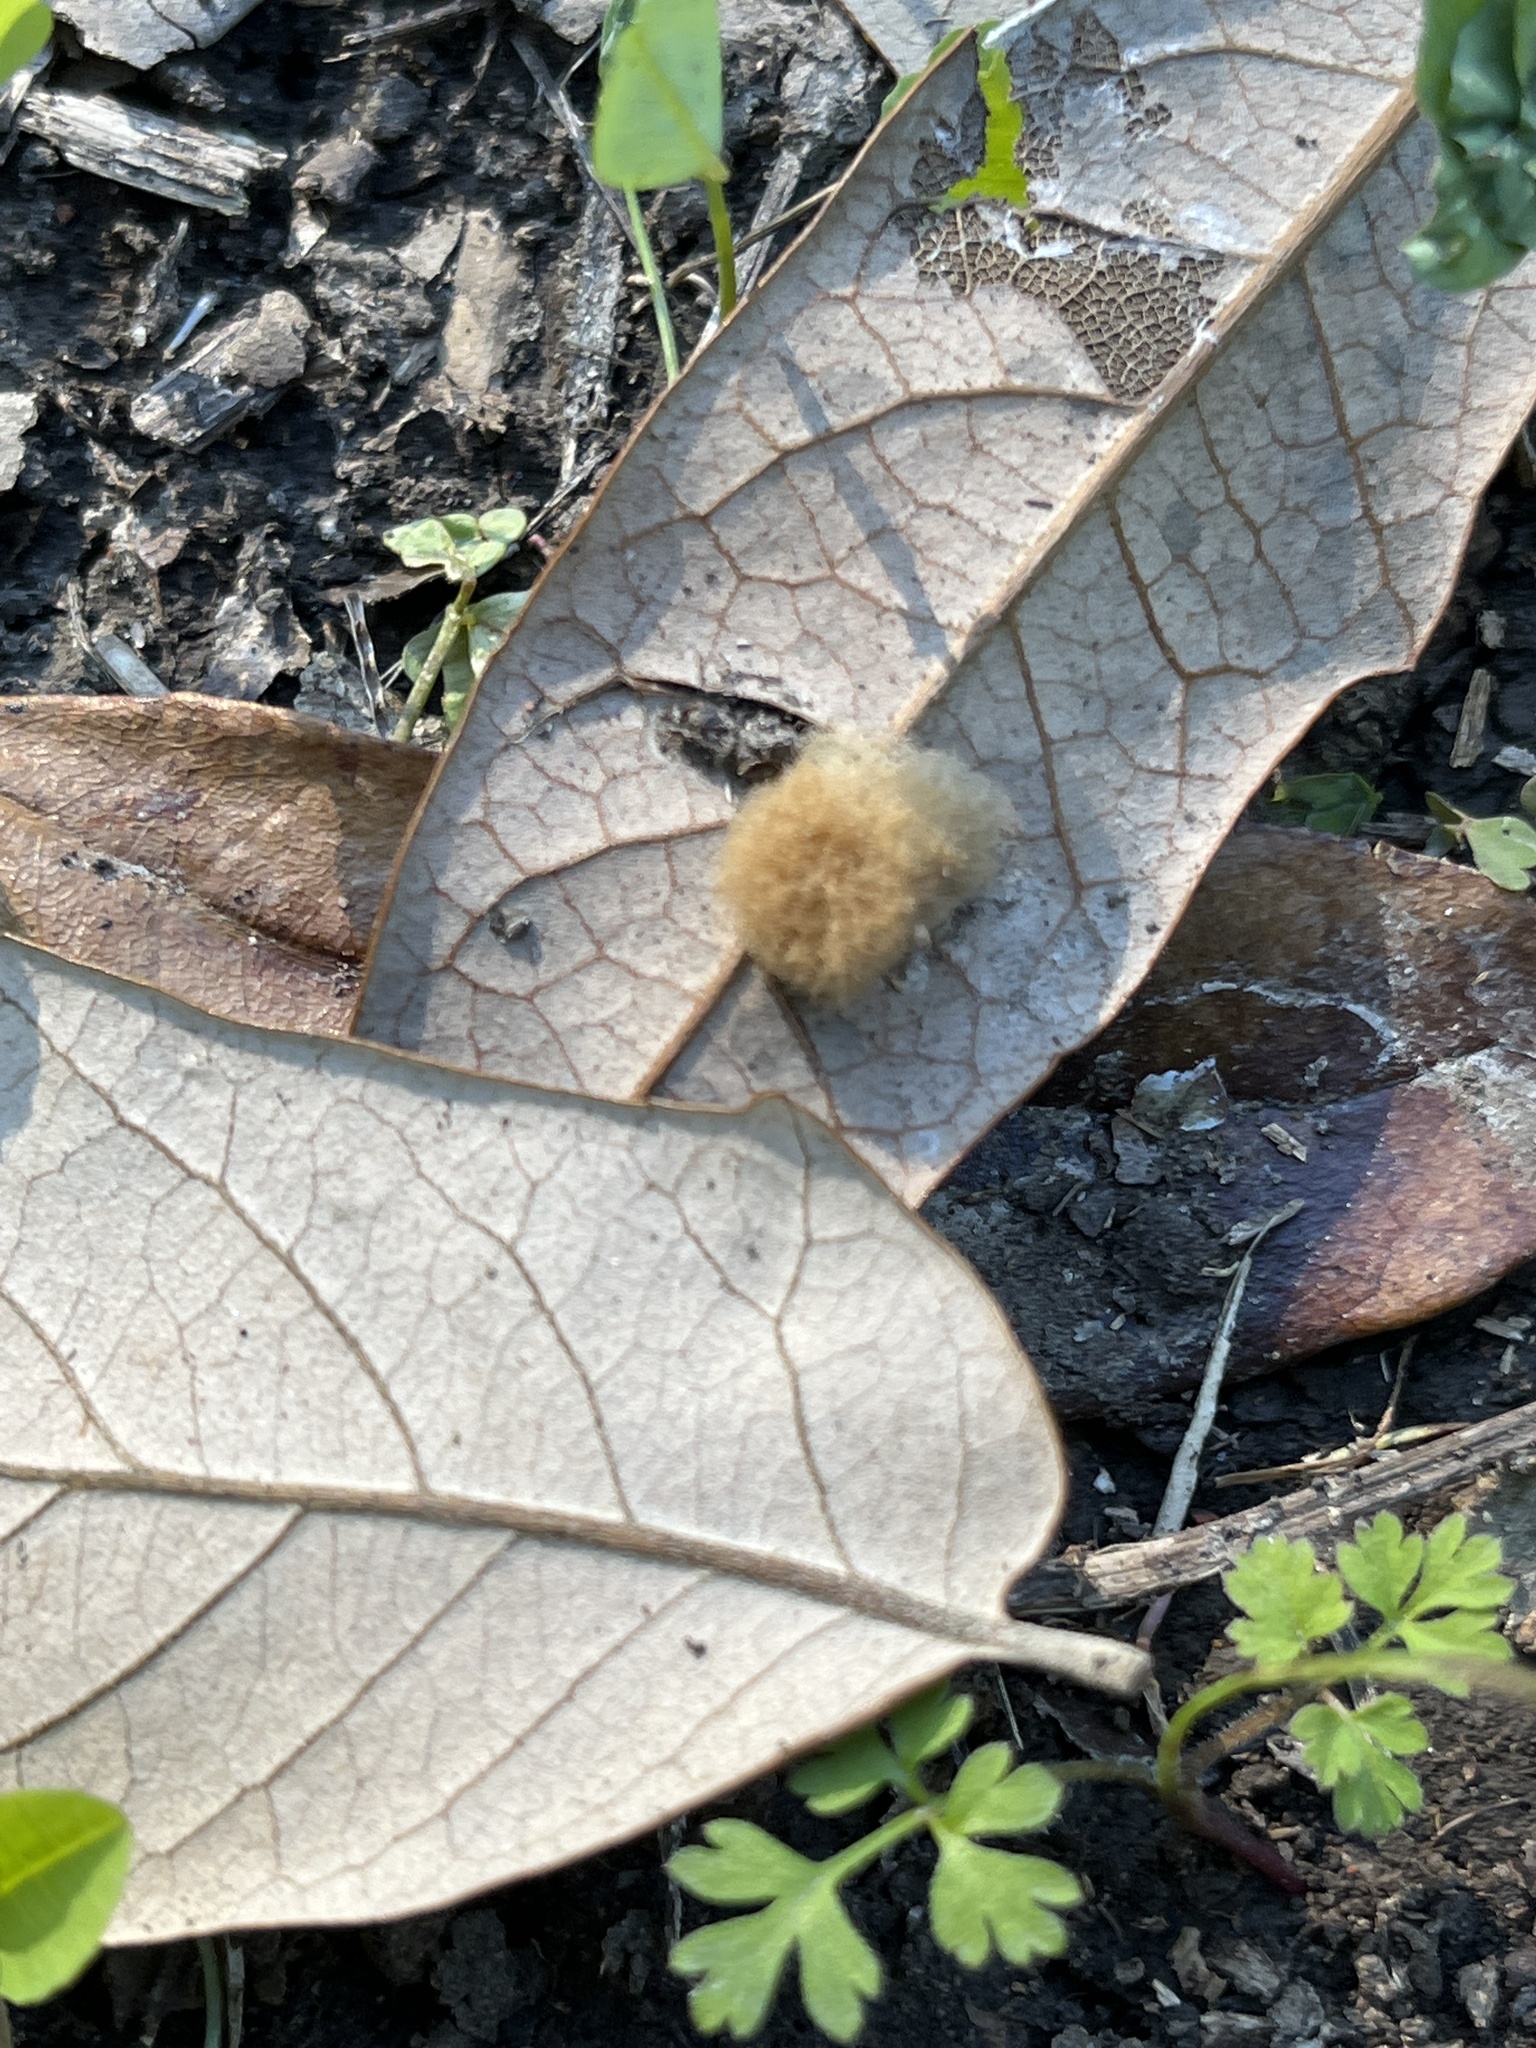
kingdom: Animalia
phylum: Arthropoda
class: Insecta
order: Hymenoptera
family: Cynipidae
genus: Andricus
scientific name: Andricus Druon quercuslanigerum
